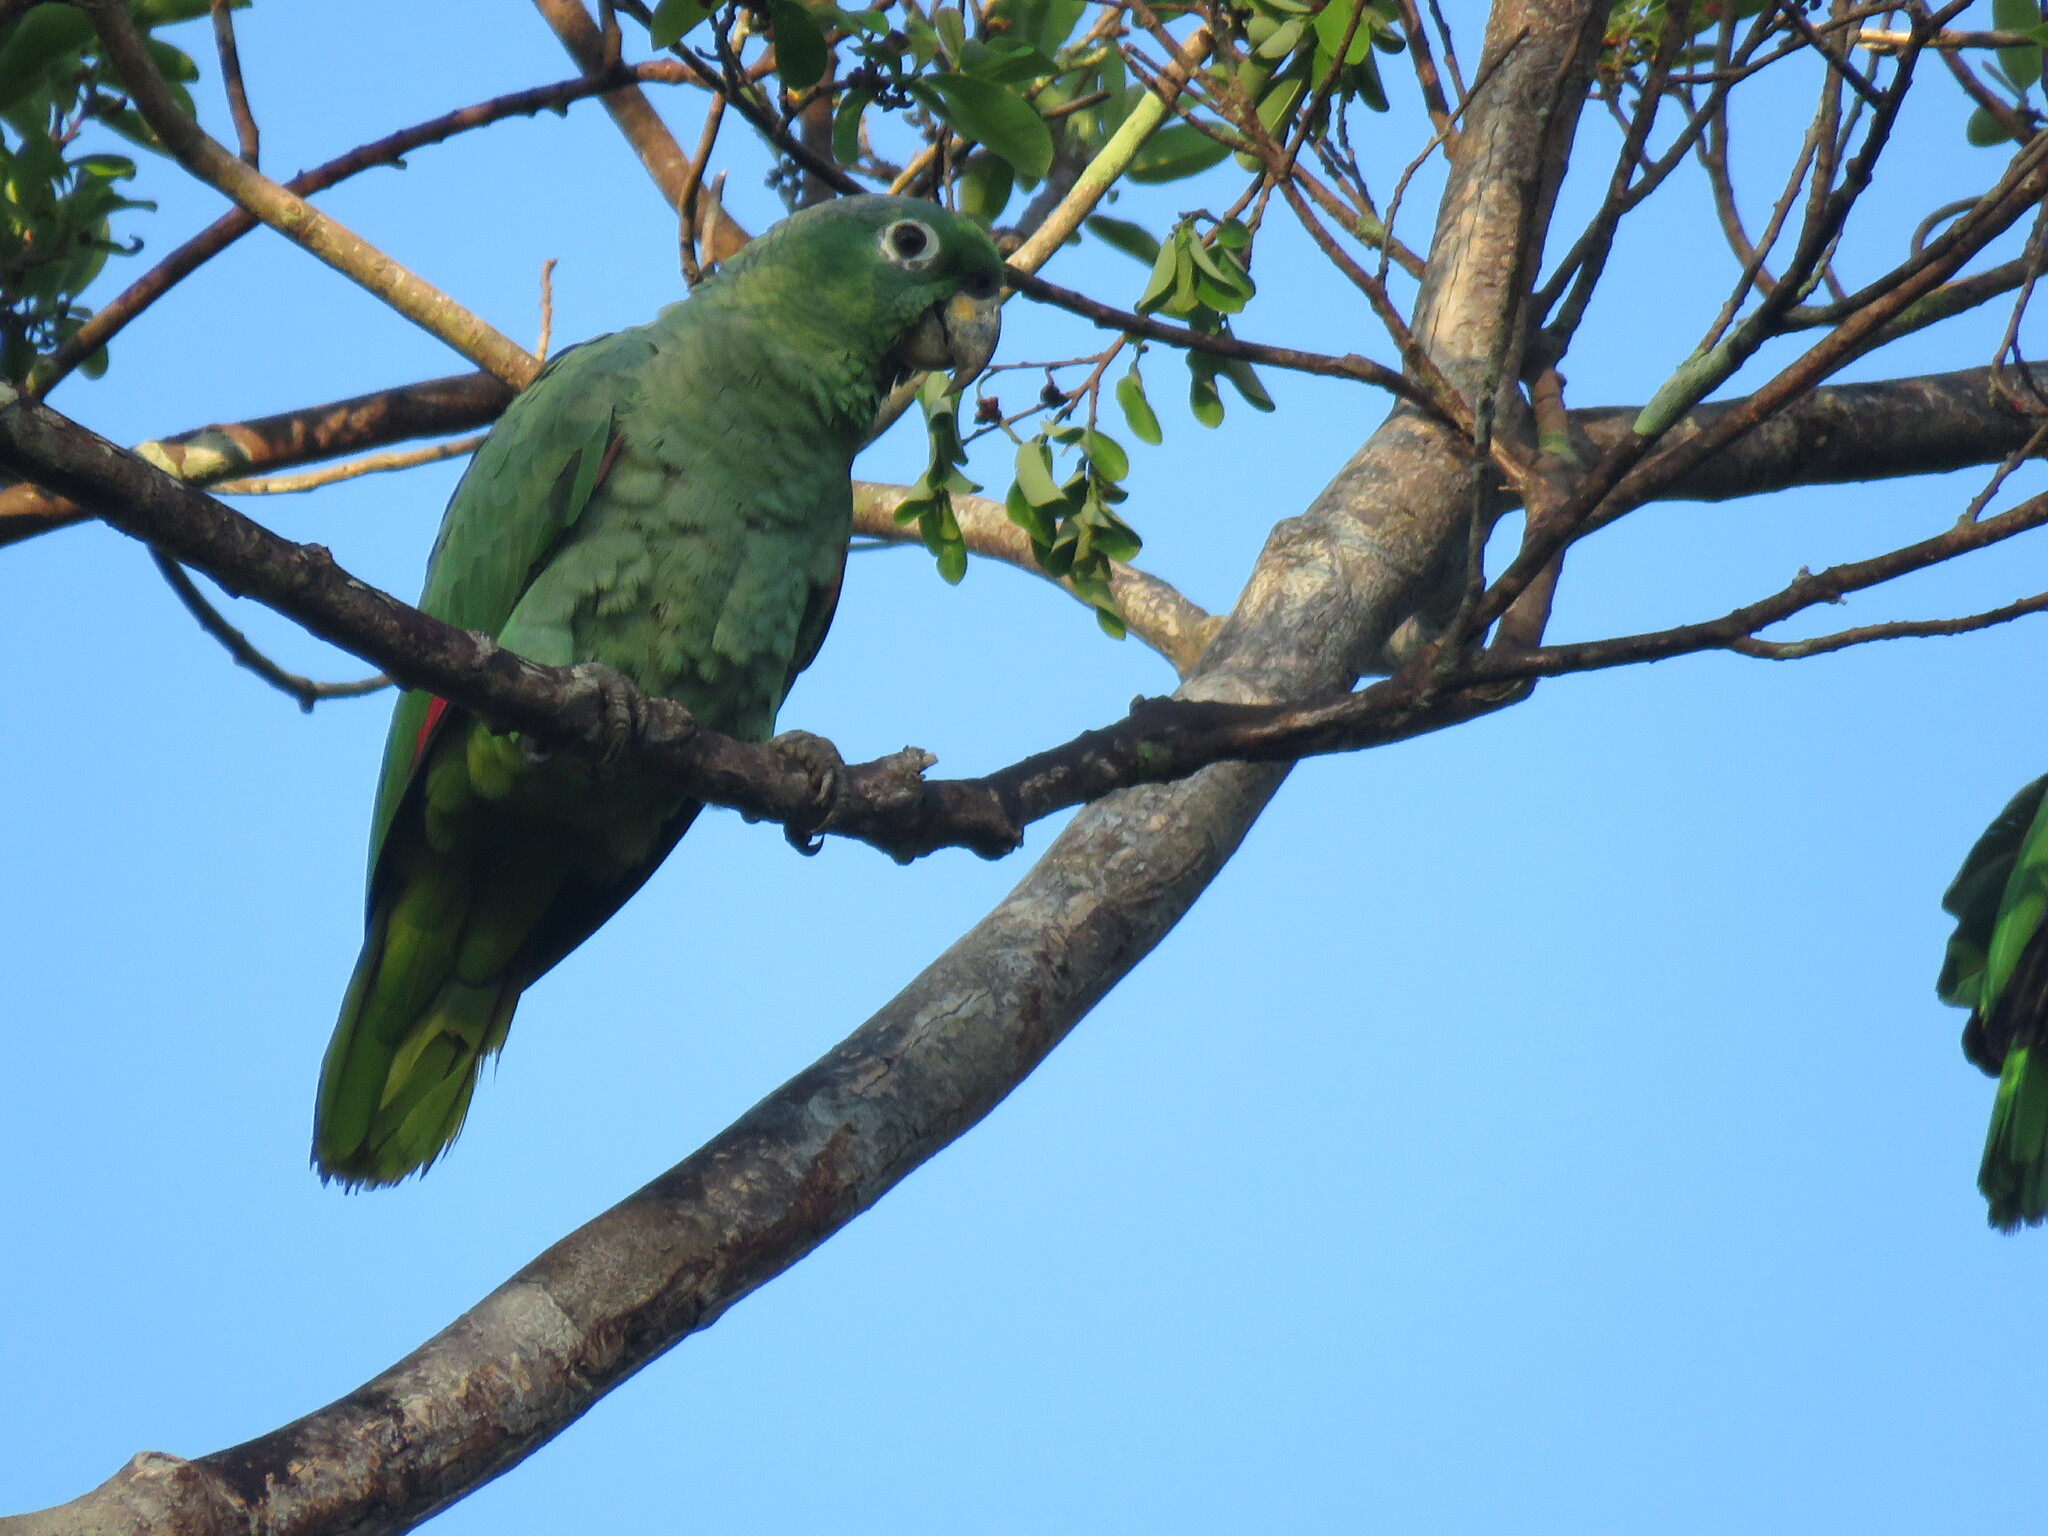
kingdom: Animalia
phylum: Chordata
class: Aves
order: Psittaciformes
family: Psittacidae
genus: Amazona
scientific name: Amazona farinosa
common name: Mealy parrot
